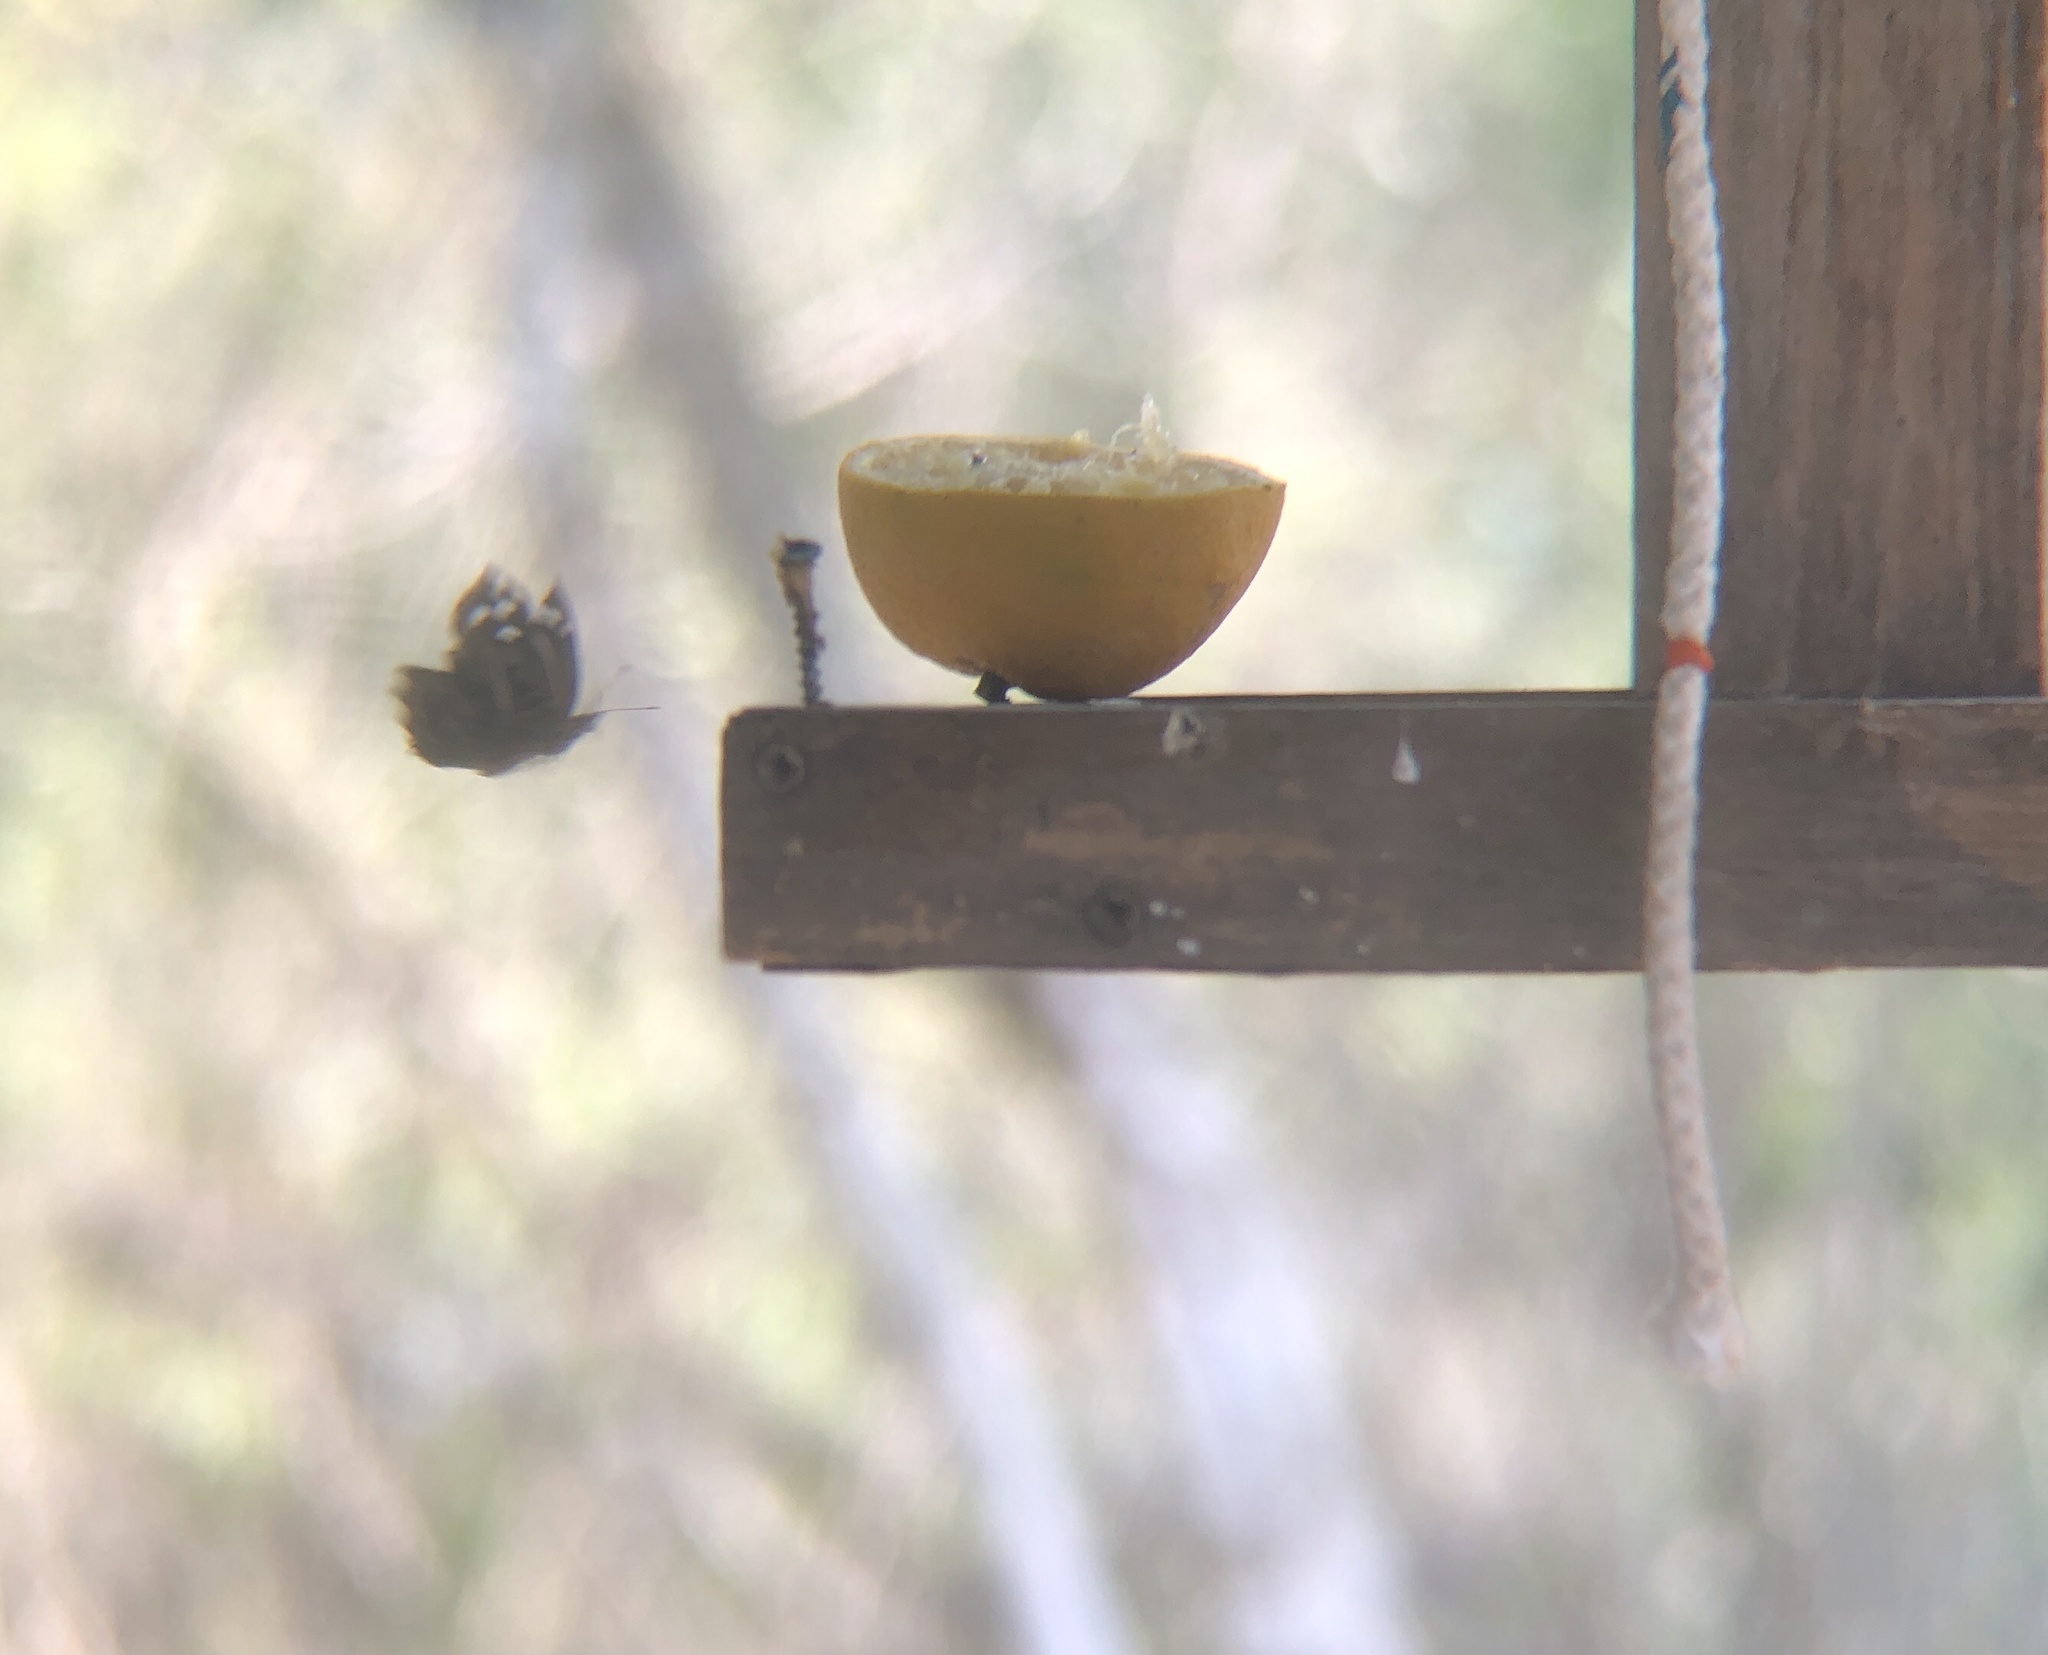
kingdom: Animalia
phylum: Arthropoda
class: Insecta
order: Lepidoptera
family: Nymphalidae
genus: Myscelia
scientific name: Myscelia ethusa
